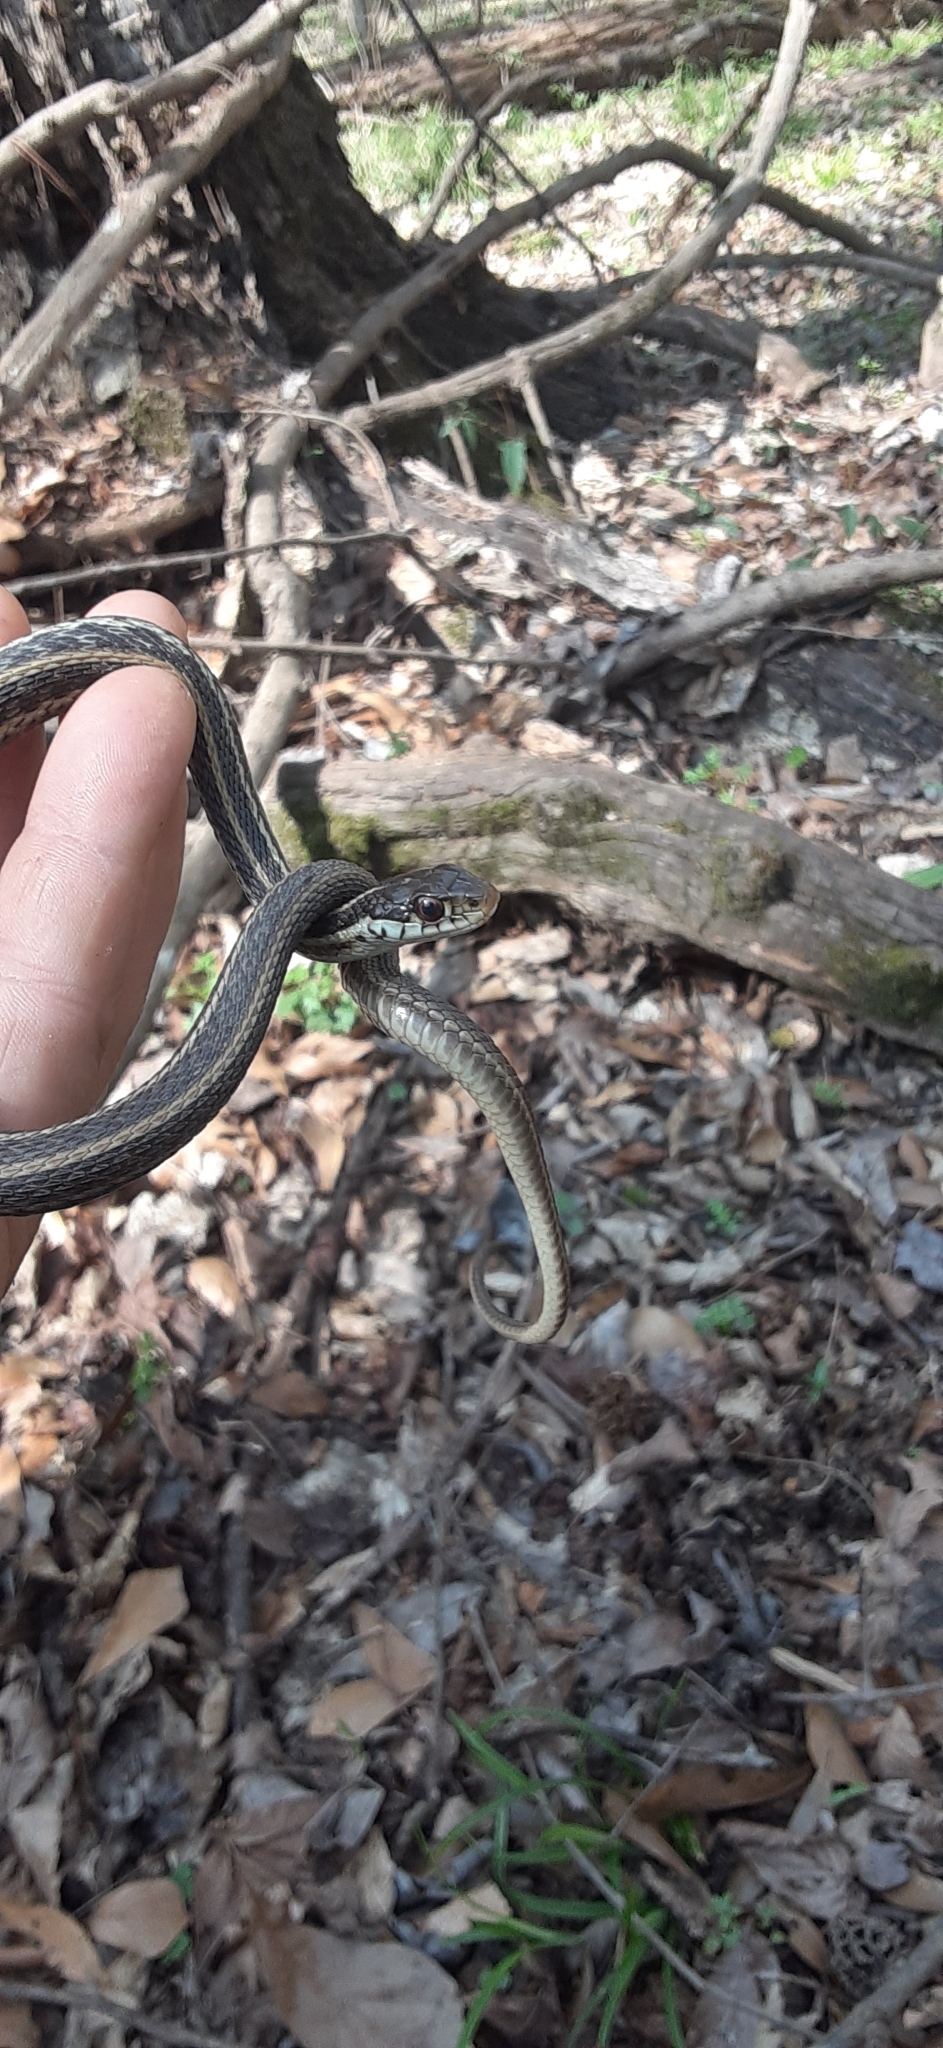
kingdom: Animalia
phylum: Chordata
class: Squamata
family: Colubridae
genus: Thamnophis
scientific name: Thamnophis sirtalis
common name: Common garter snake
